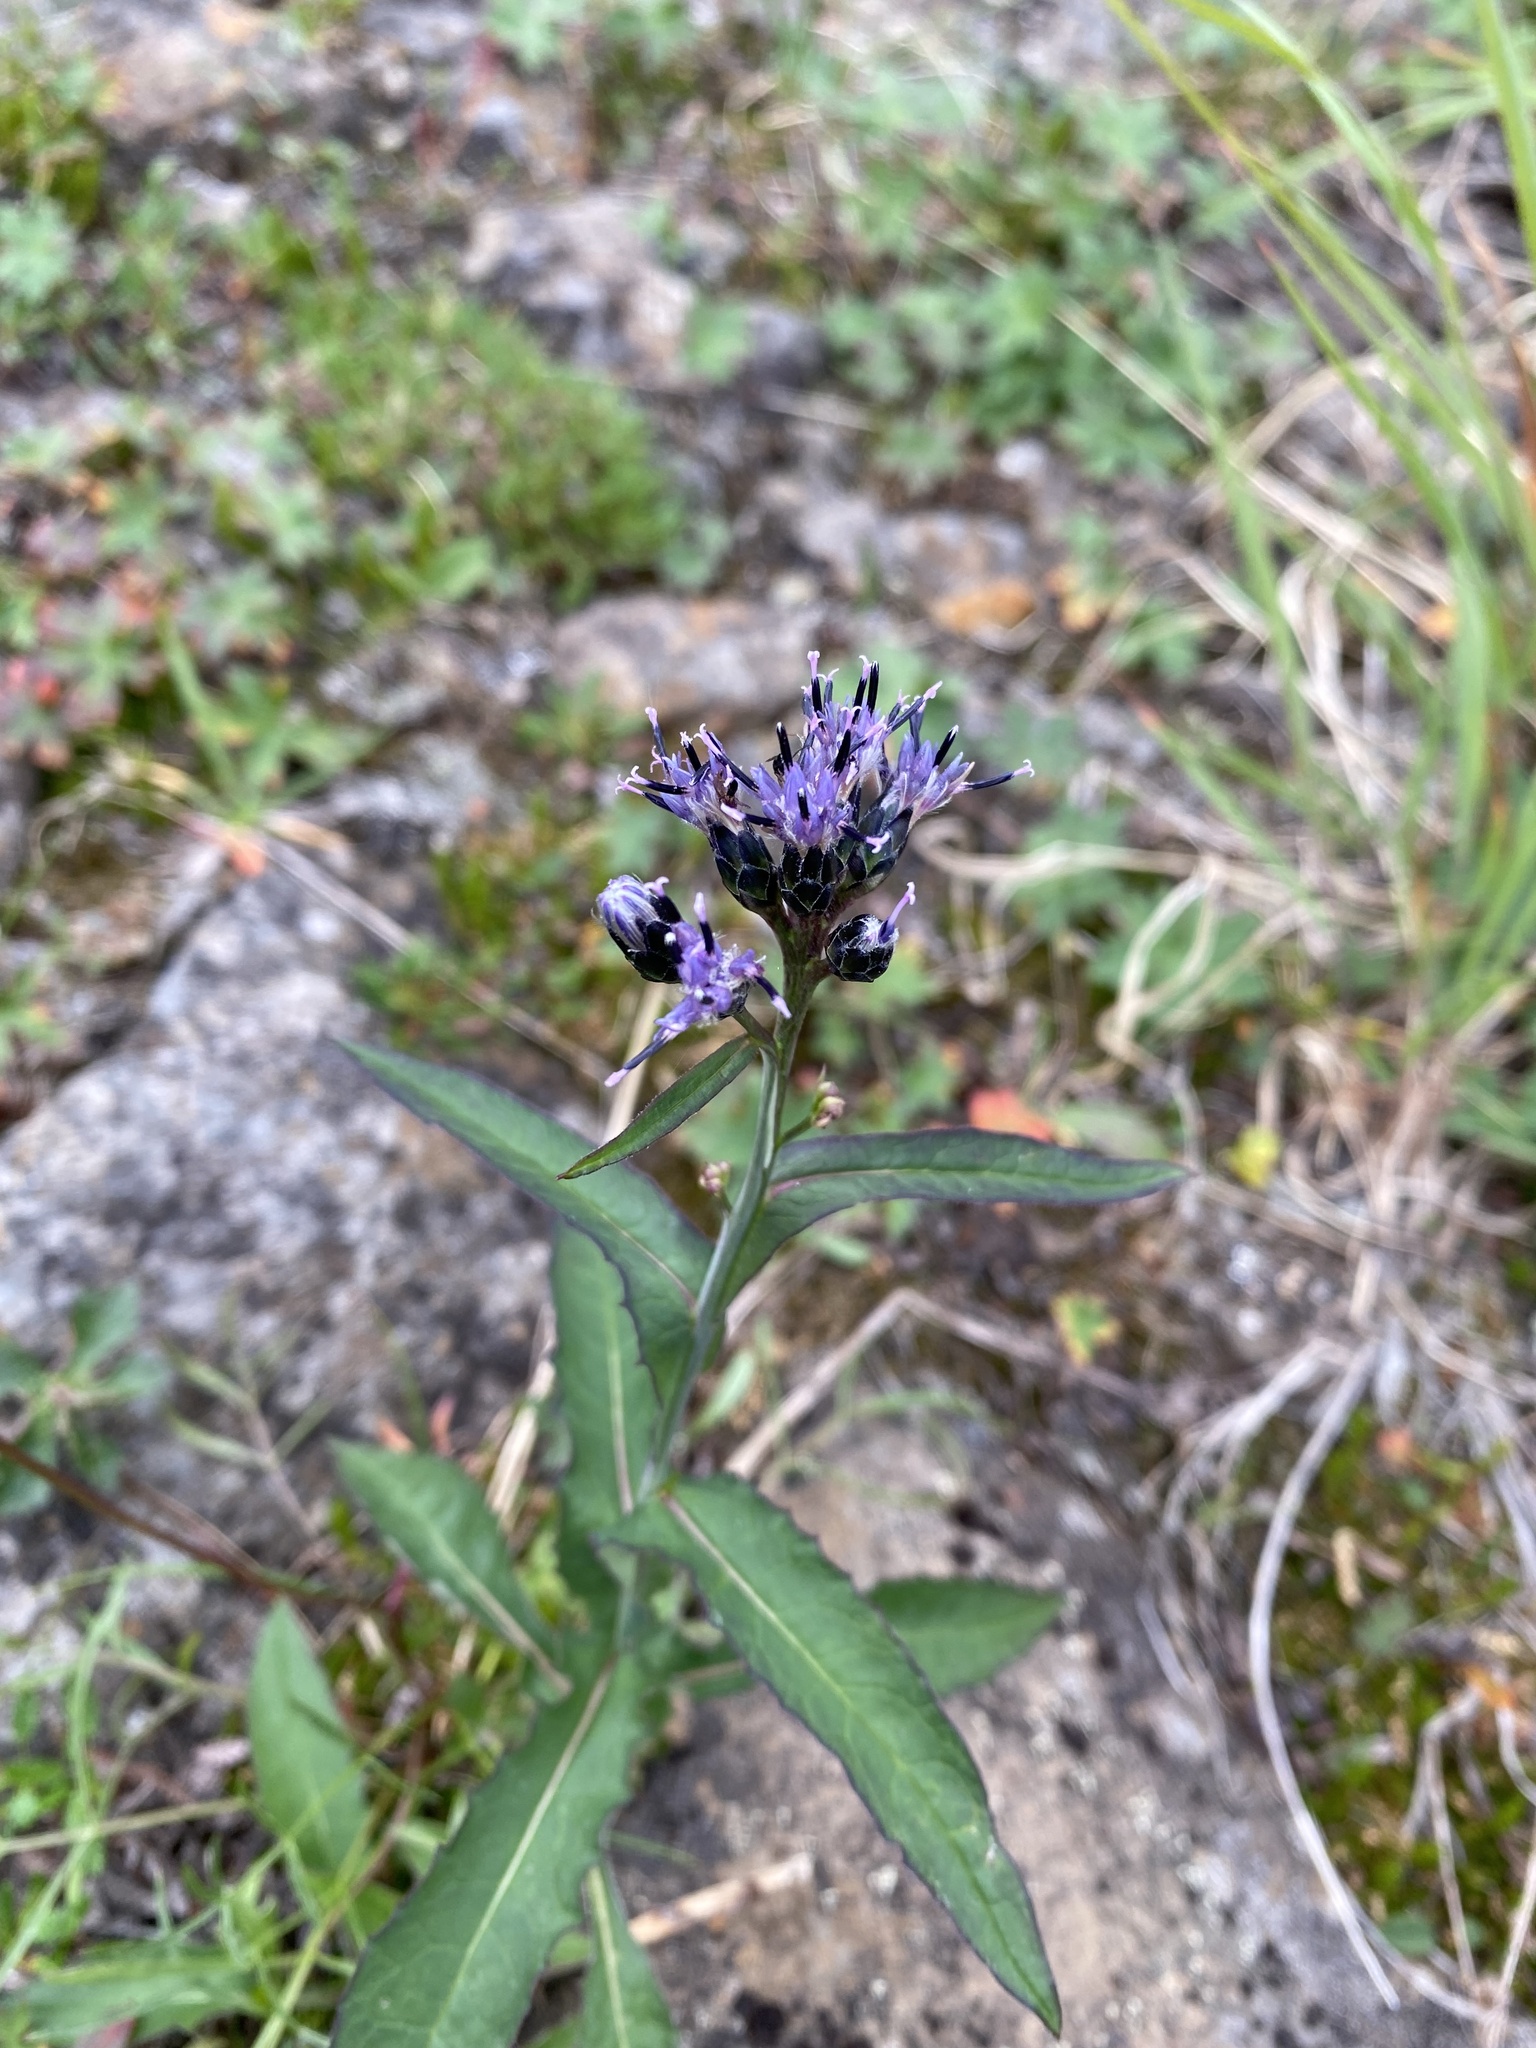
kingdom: Plantae
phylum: Tracheophyta
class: Magnoliopsida
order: Asterales
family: Asteraceae
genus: Saussurea
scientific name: Saussurea parviflora
